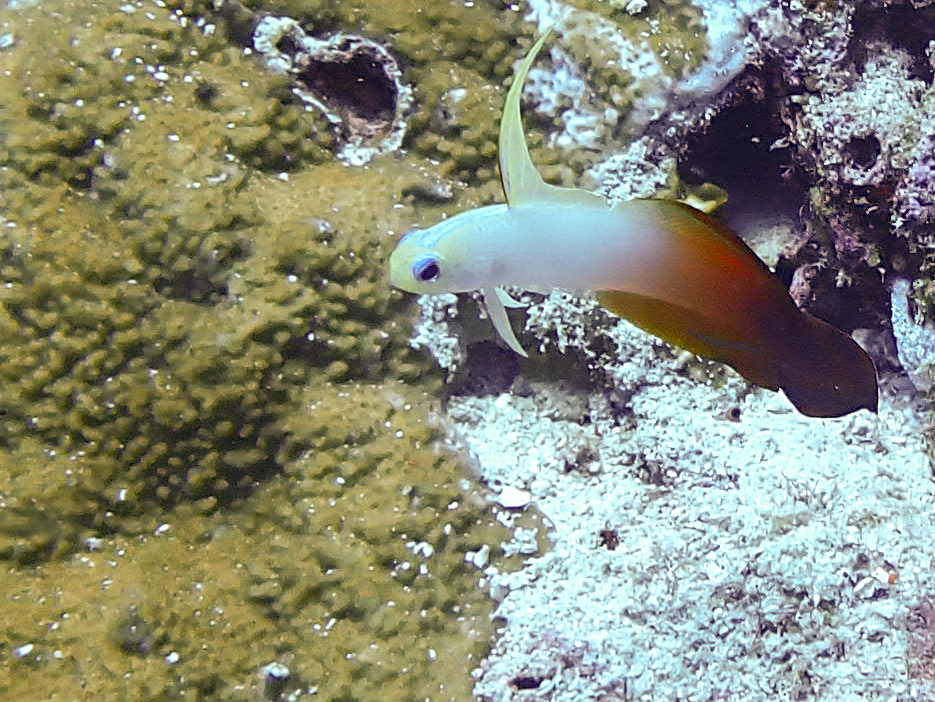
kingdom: Animalia
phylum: Chordata
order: Perciformes
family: Microdesmidae
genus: Nemateleotris
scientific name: Nemateleotris magnifica
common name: Fire goby
